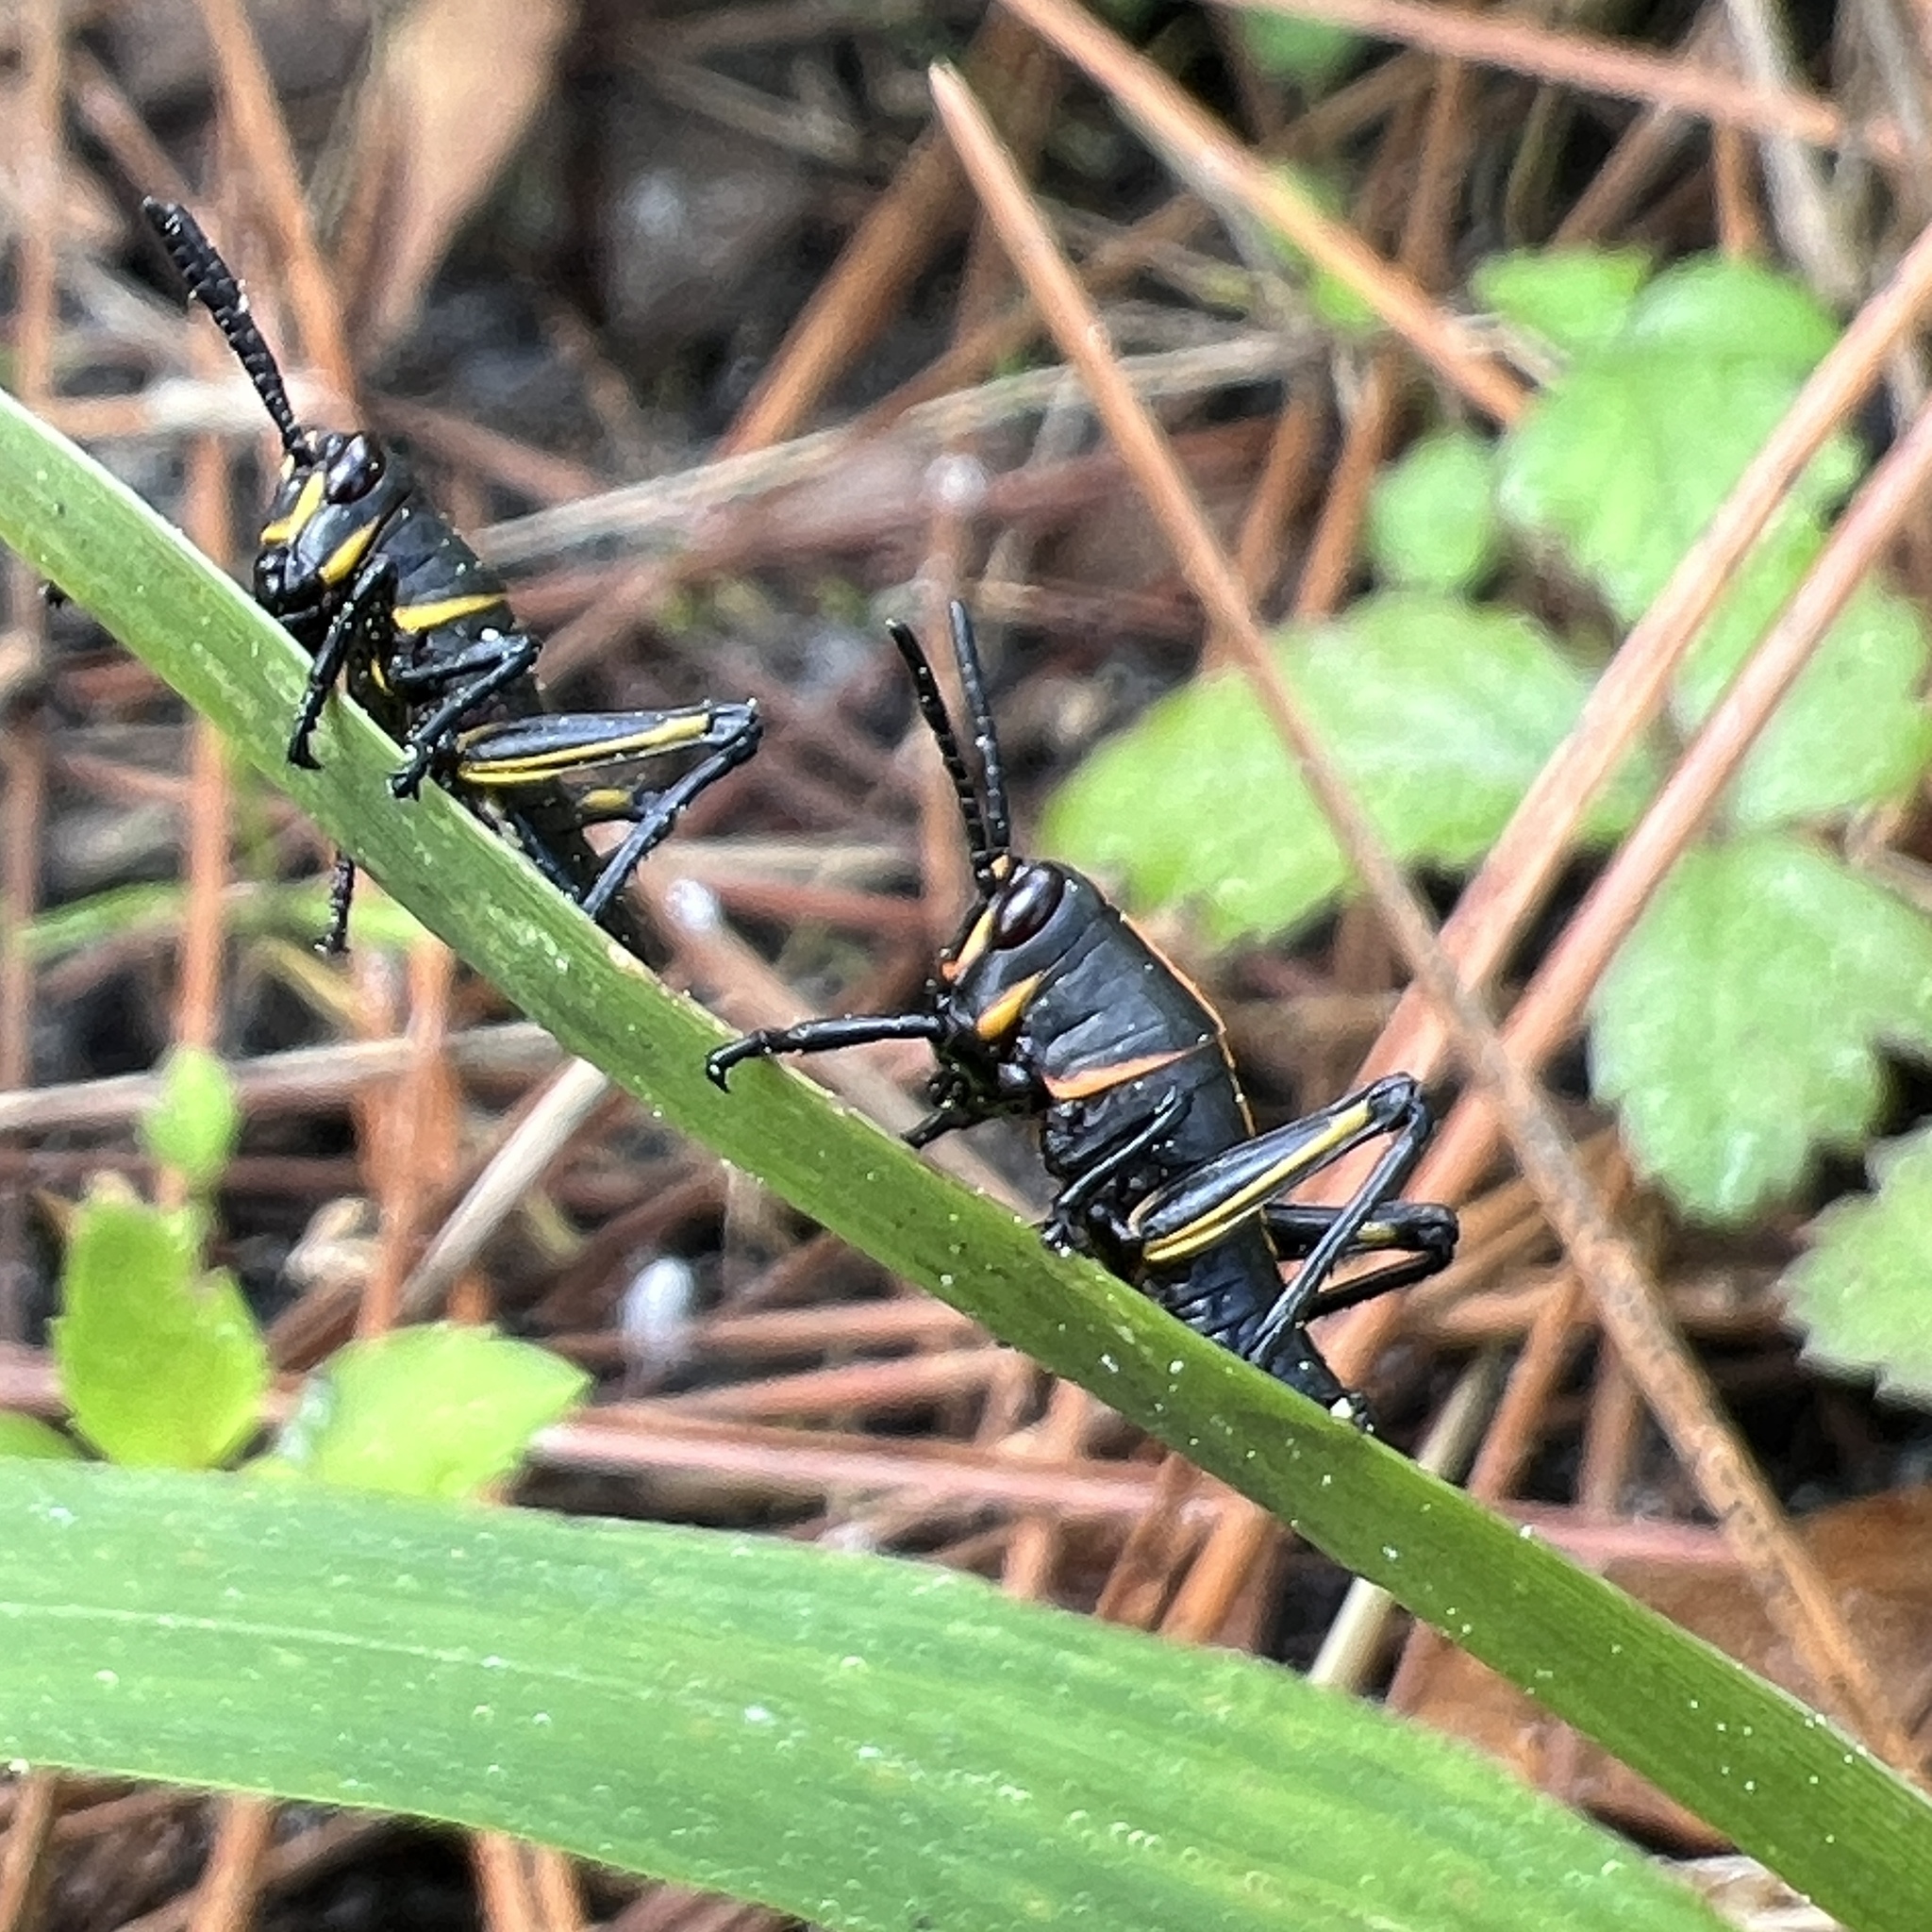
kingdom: Animalia
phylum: Arthropoda
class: Insecta
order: Orthoptera
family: Romaleidae
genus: Romalea
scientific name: Romalea microptera
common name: Eastern lubber grasshopper
